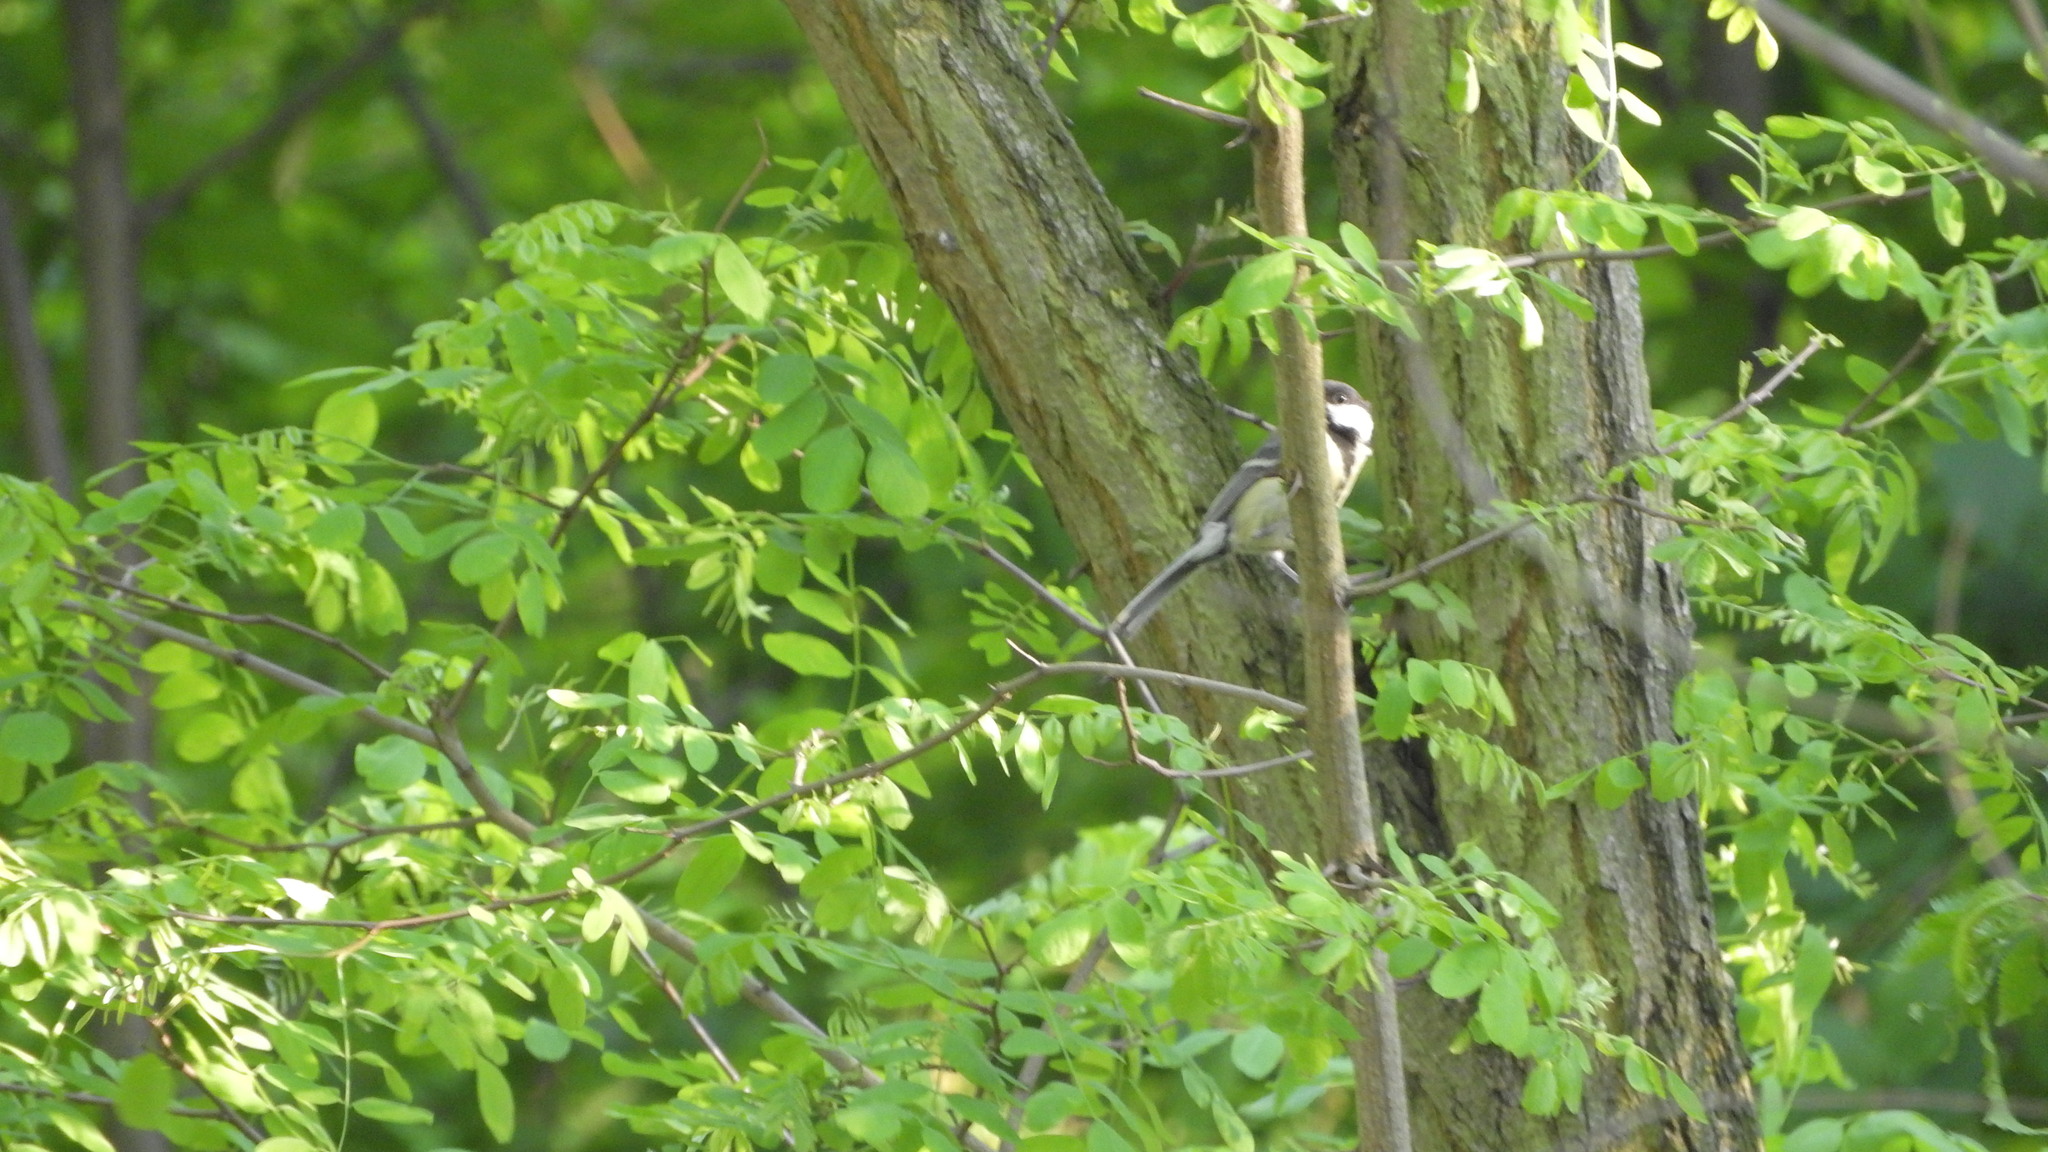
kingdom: Animalia
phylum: Chordata
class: Aves
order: Passeriformes
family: Paridae
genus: Parus
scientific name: Parus major
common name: Great tit
